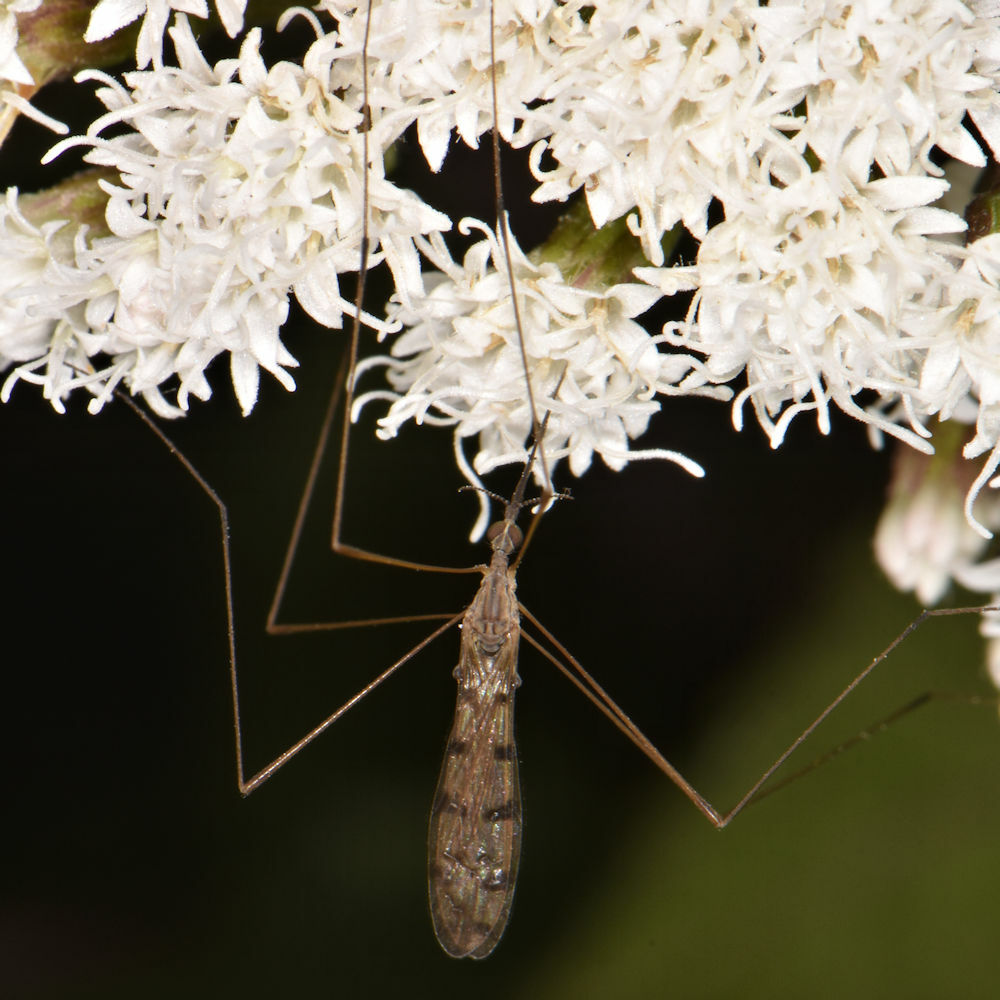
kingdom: Animalia
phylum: Arthropoda
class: Insecta
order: Diptera
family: Limoniidae
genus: Geranomyia
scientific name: Geranomyia rostrata
